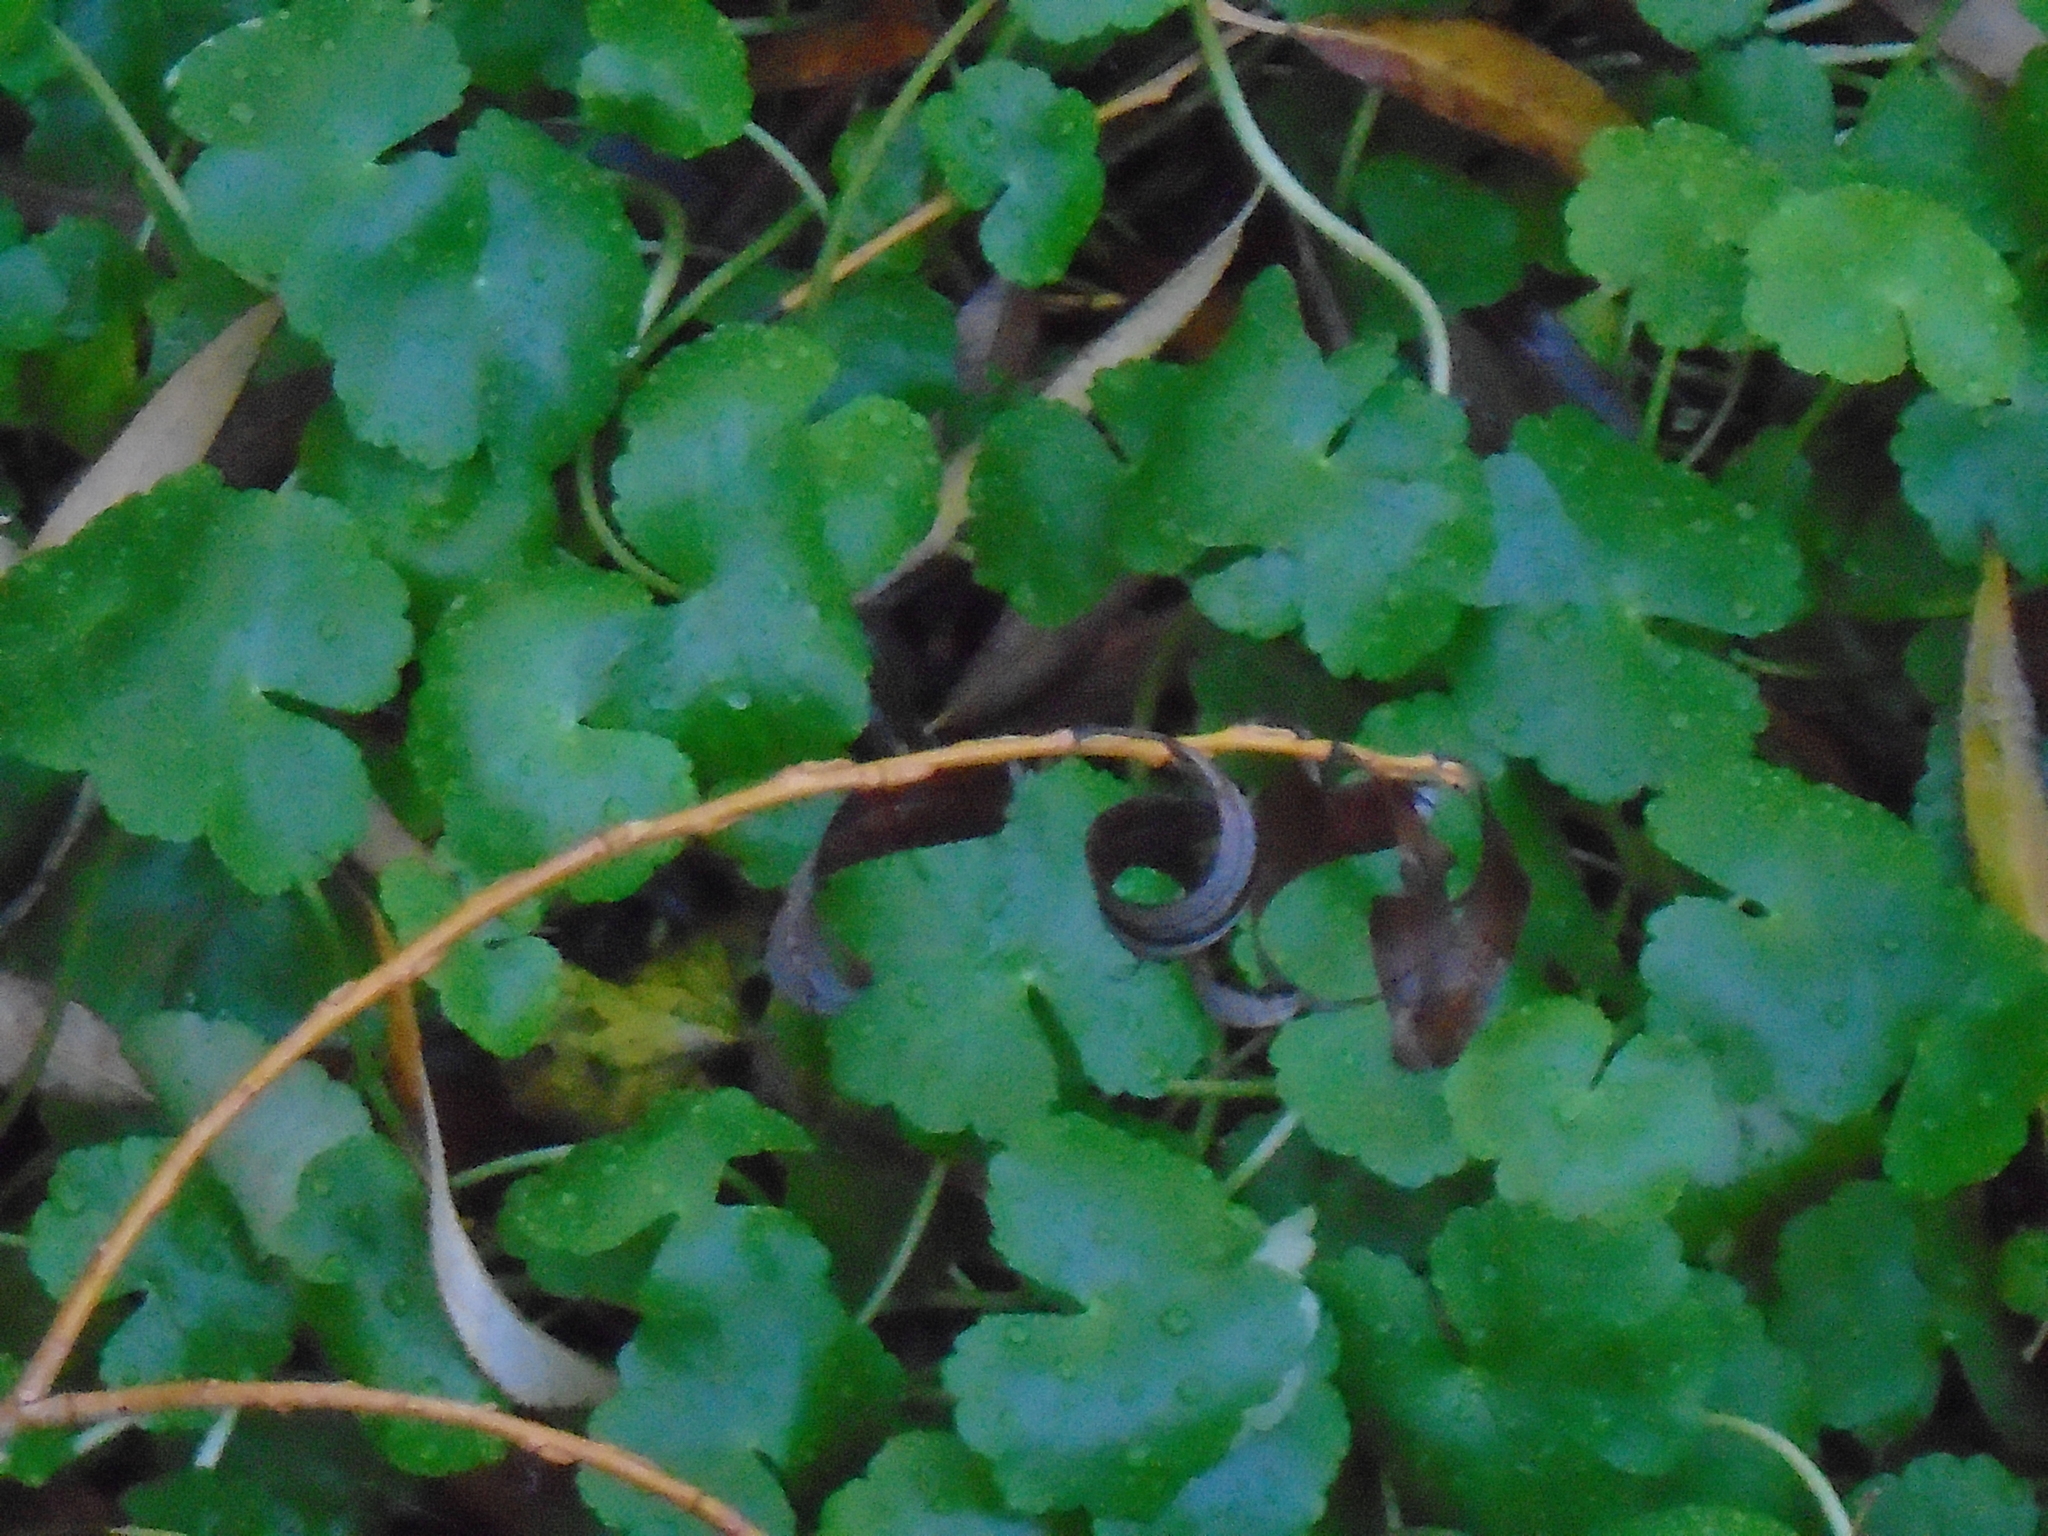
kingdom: Plantae
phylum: Tracheophyta
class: Magnoliopsida
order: Apiales
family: Araliaceae
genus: Hydrocotyle
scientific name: Hydrocotyle ranunculoides
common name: Floating pennywort
